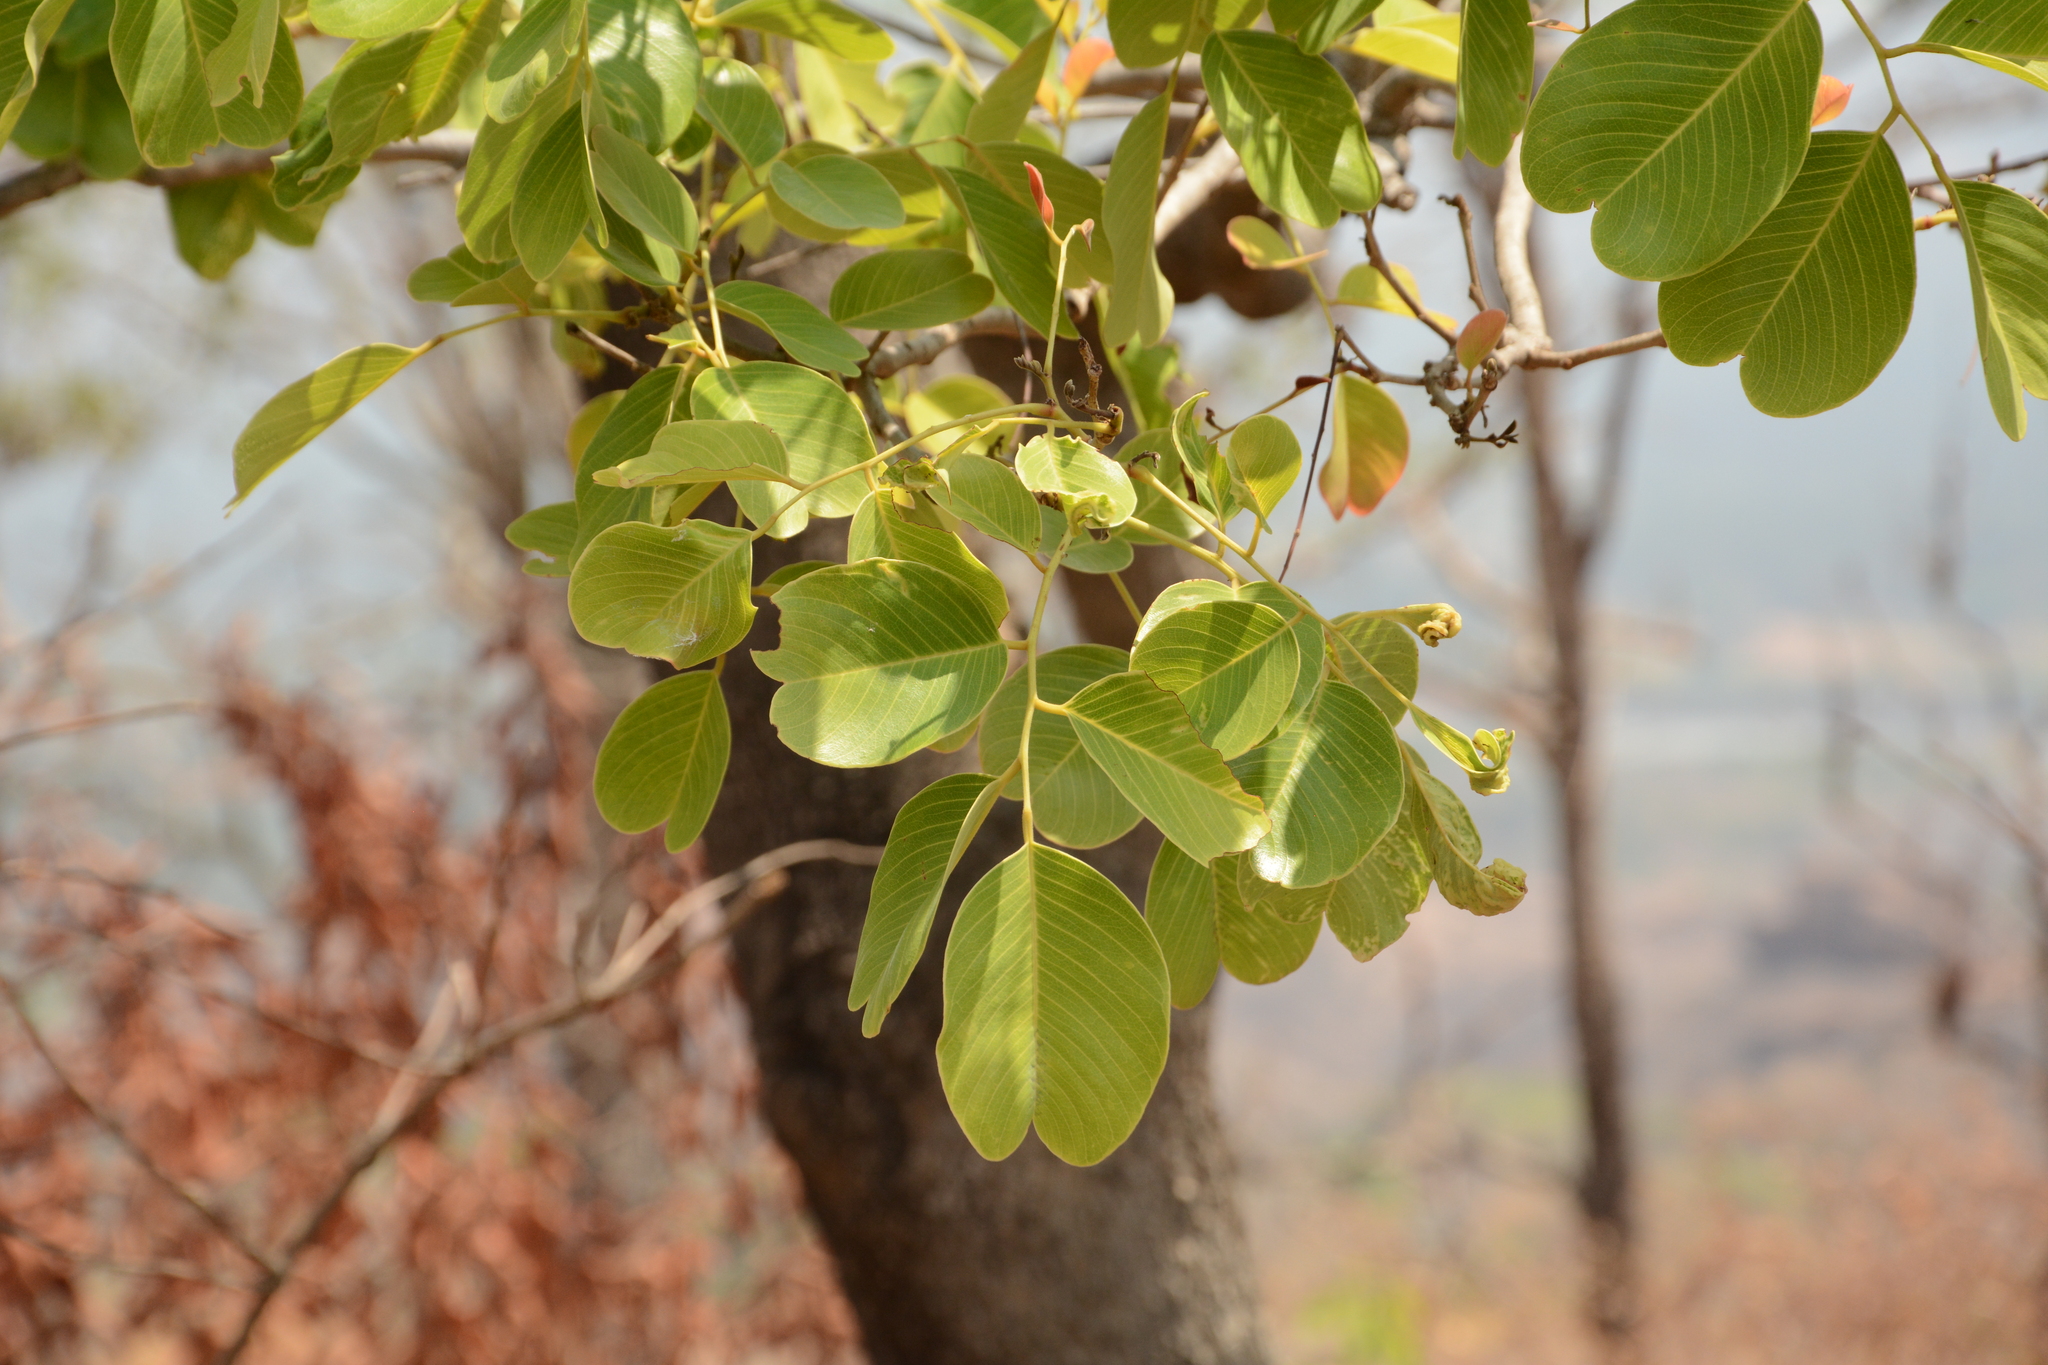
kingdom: Plantae
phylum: Tracheophyta
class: Magnoliopsida
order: Fabales
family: Fabaceae
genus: Pterocarpus
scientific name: Pterocarpus marsupium
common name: East indian/malabar kino
